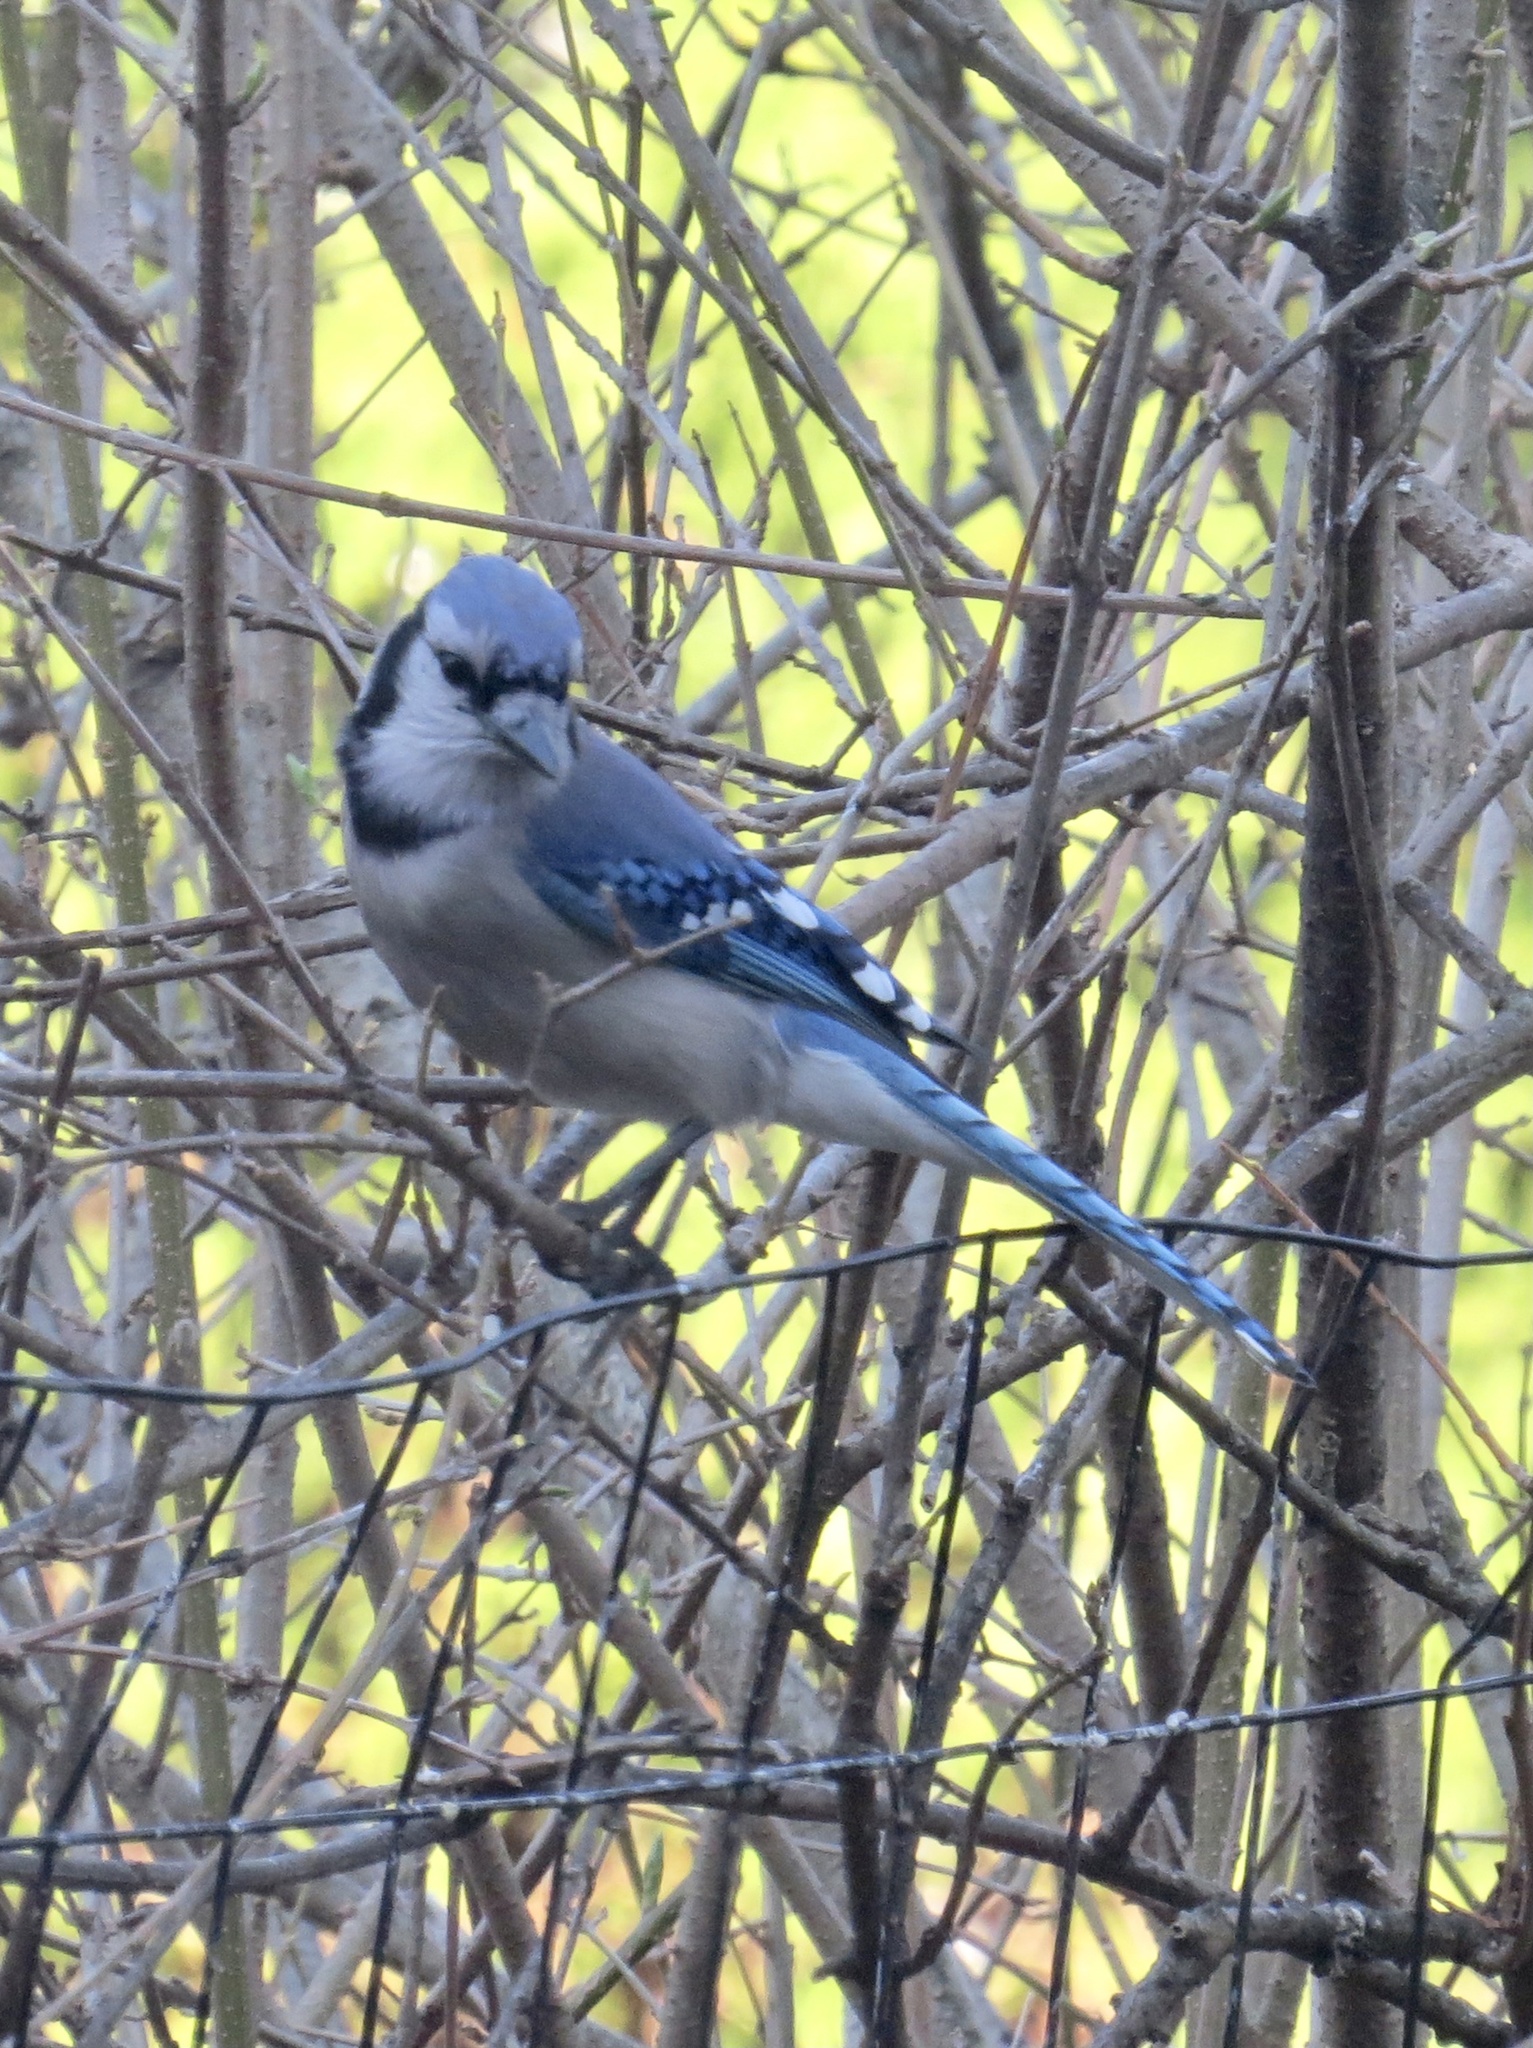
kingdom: Animalia
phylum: Chordata
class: Aves
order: Passeriformes
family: Corvidae
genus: Cyanocitta
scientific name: Cyanocitta cristata
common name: Blue jay
